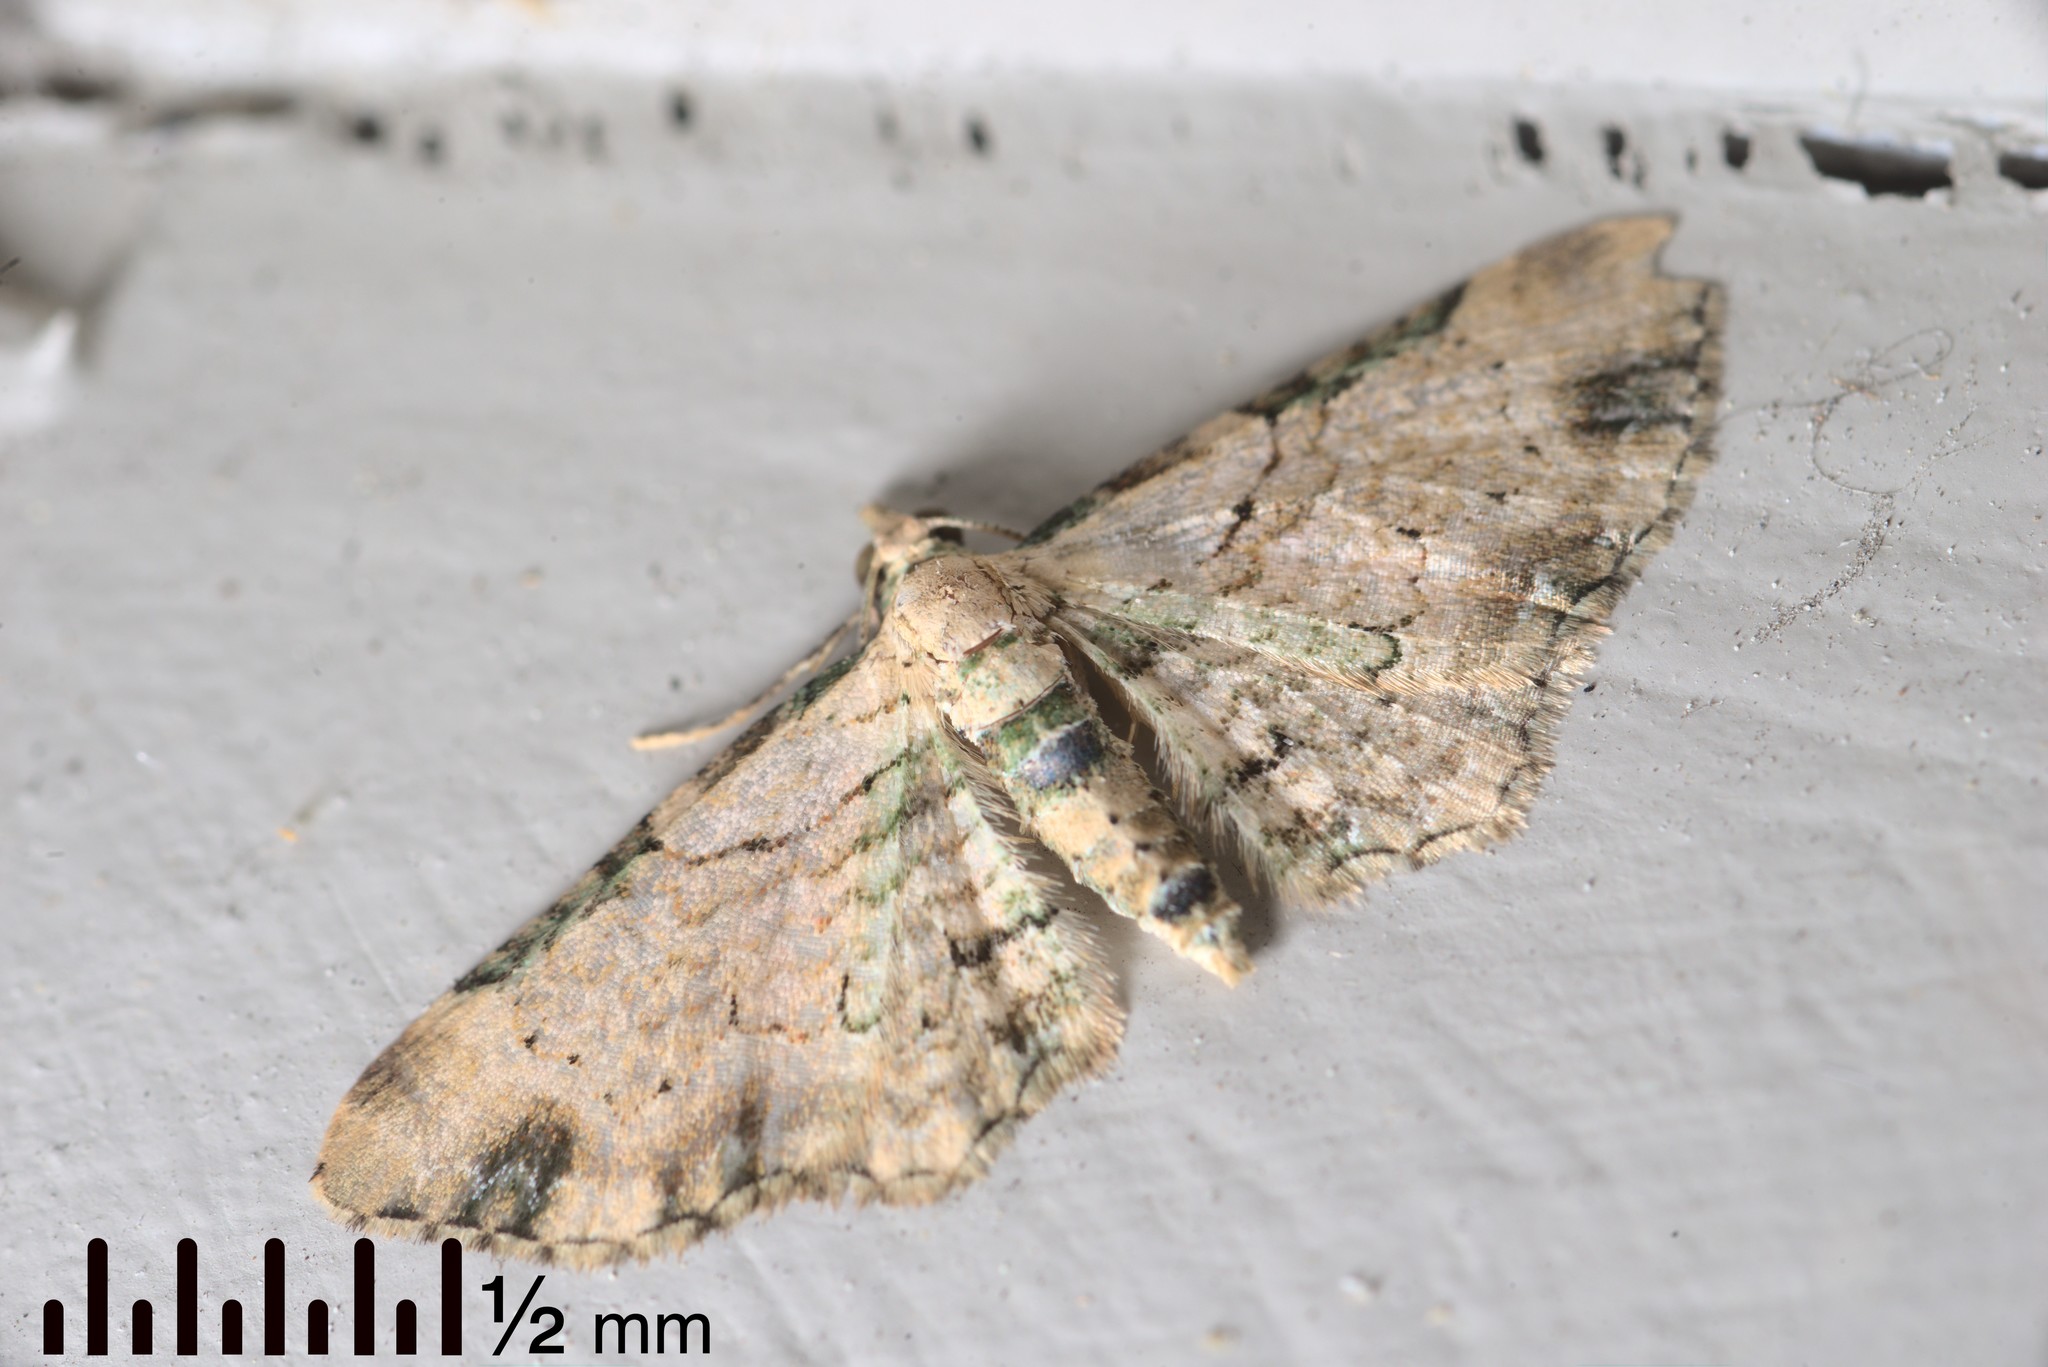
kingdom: Animalia
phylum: Arthropoda
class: Insecta
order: Lepidoptera
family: Geometridae
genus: Chloroclystis
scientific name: Chloroclystis
